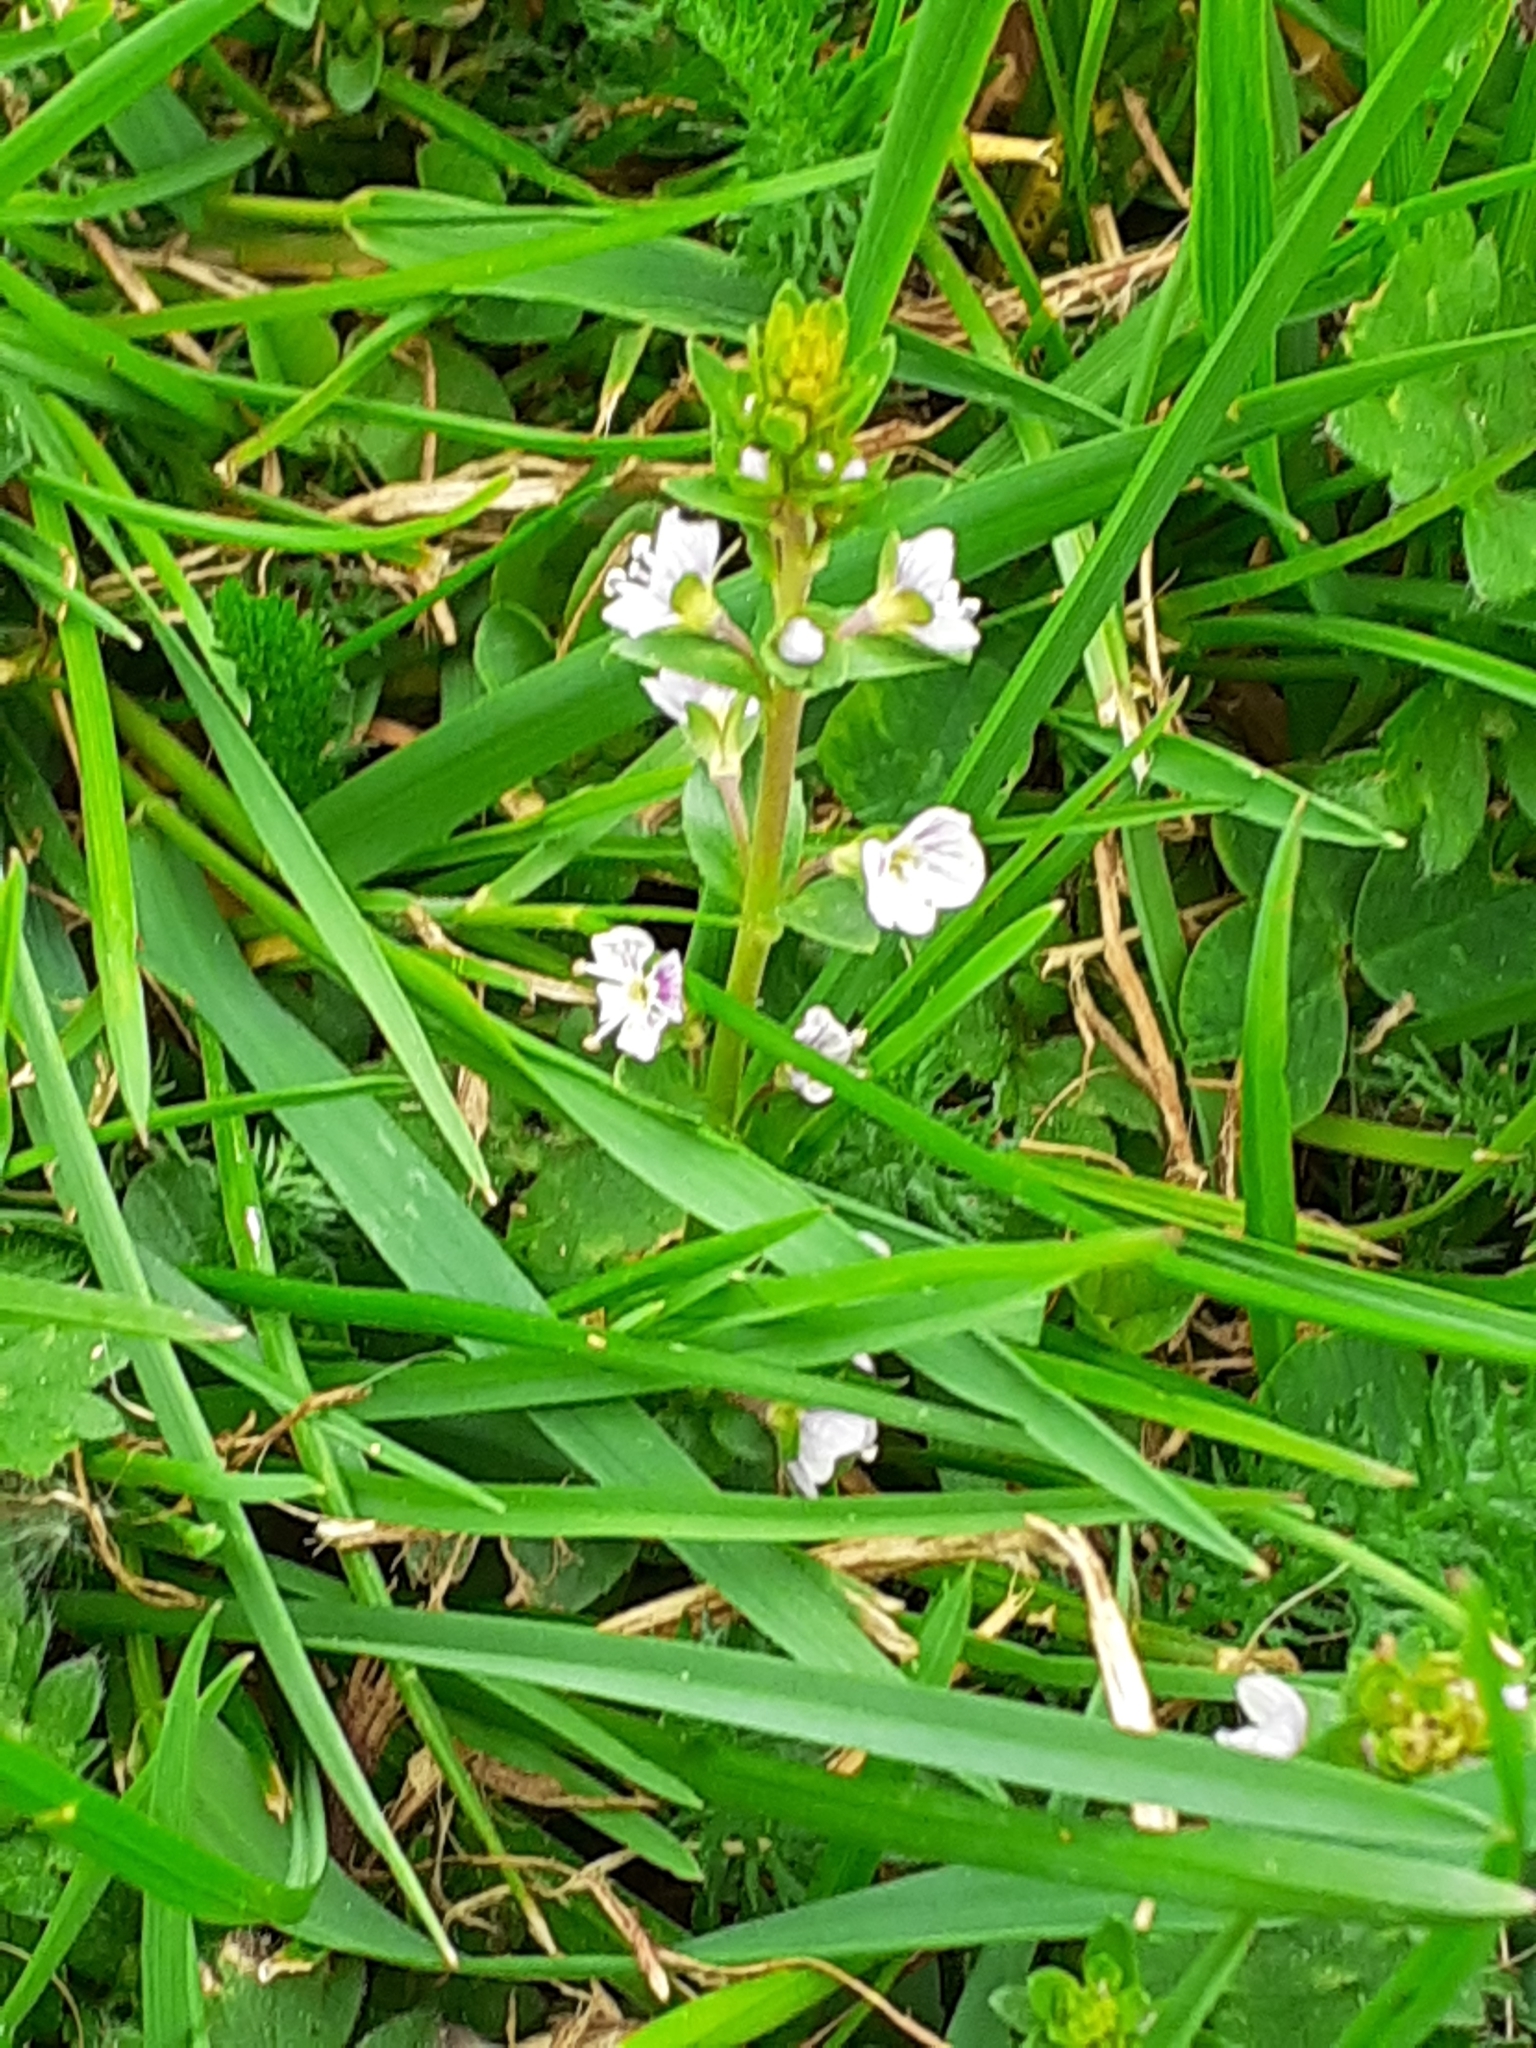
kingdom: Plantae
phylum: Tracheophyta
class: Magnoliopsida
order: Lamiales
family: Plantaginaceae
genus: Veronica
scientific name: Veronica serpyllifolia
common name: Thyme-leaved speedwell
